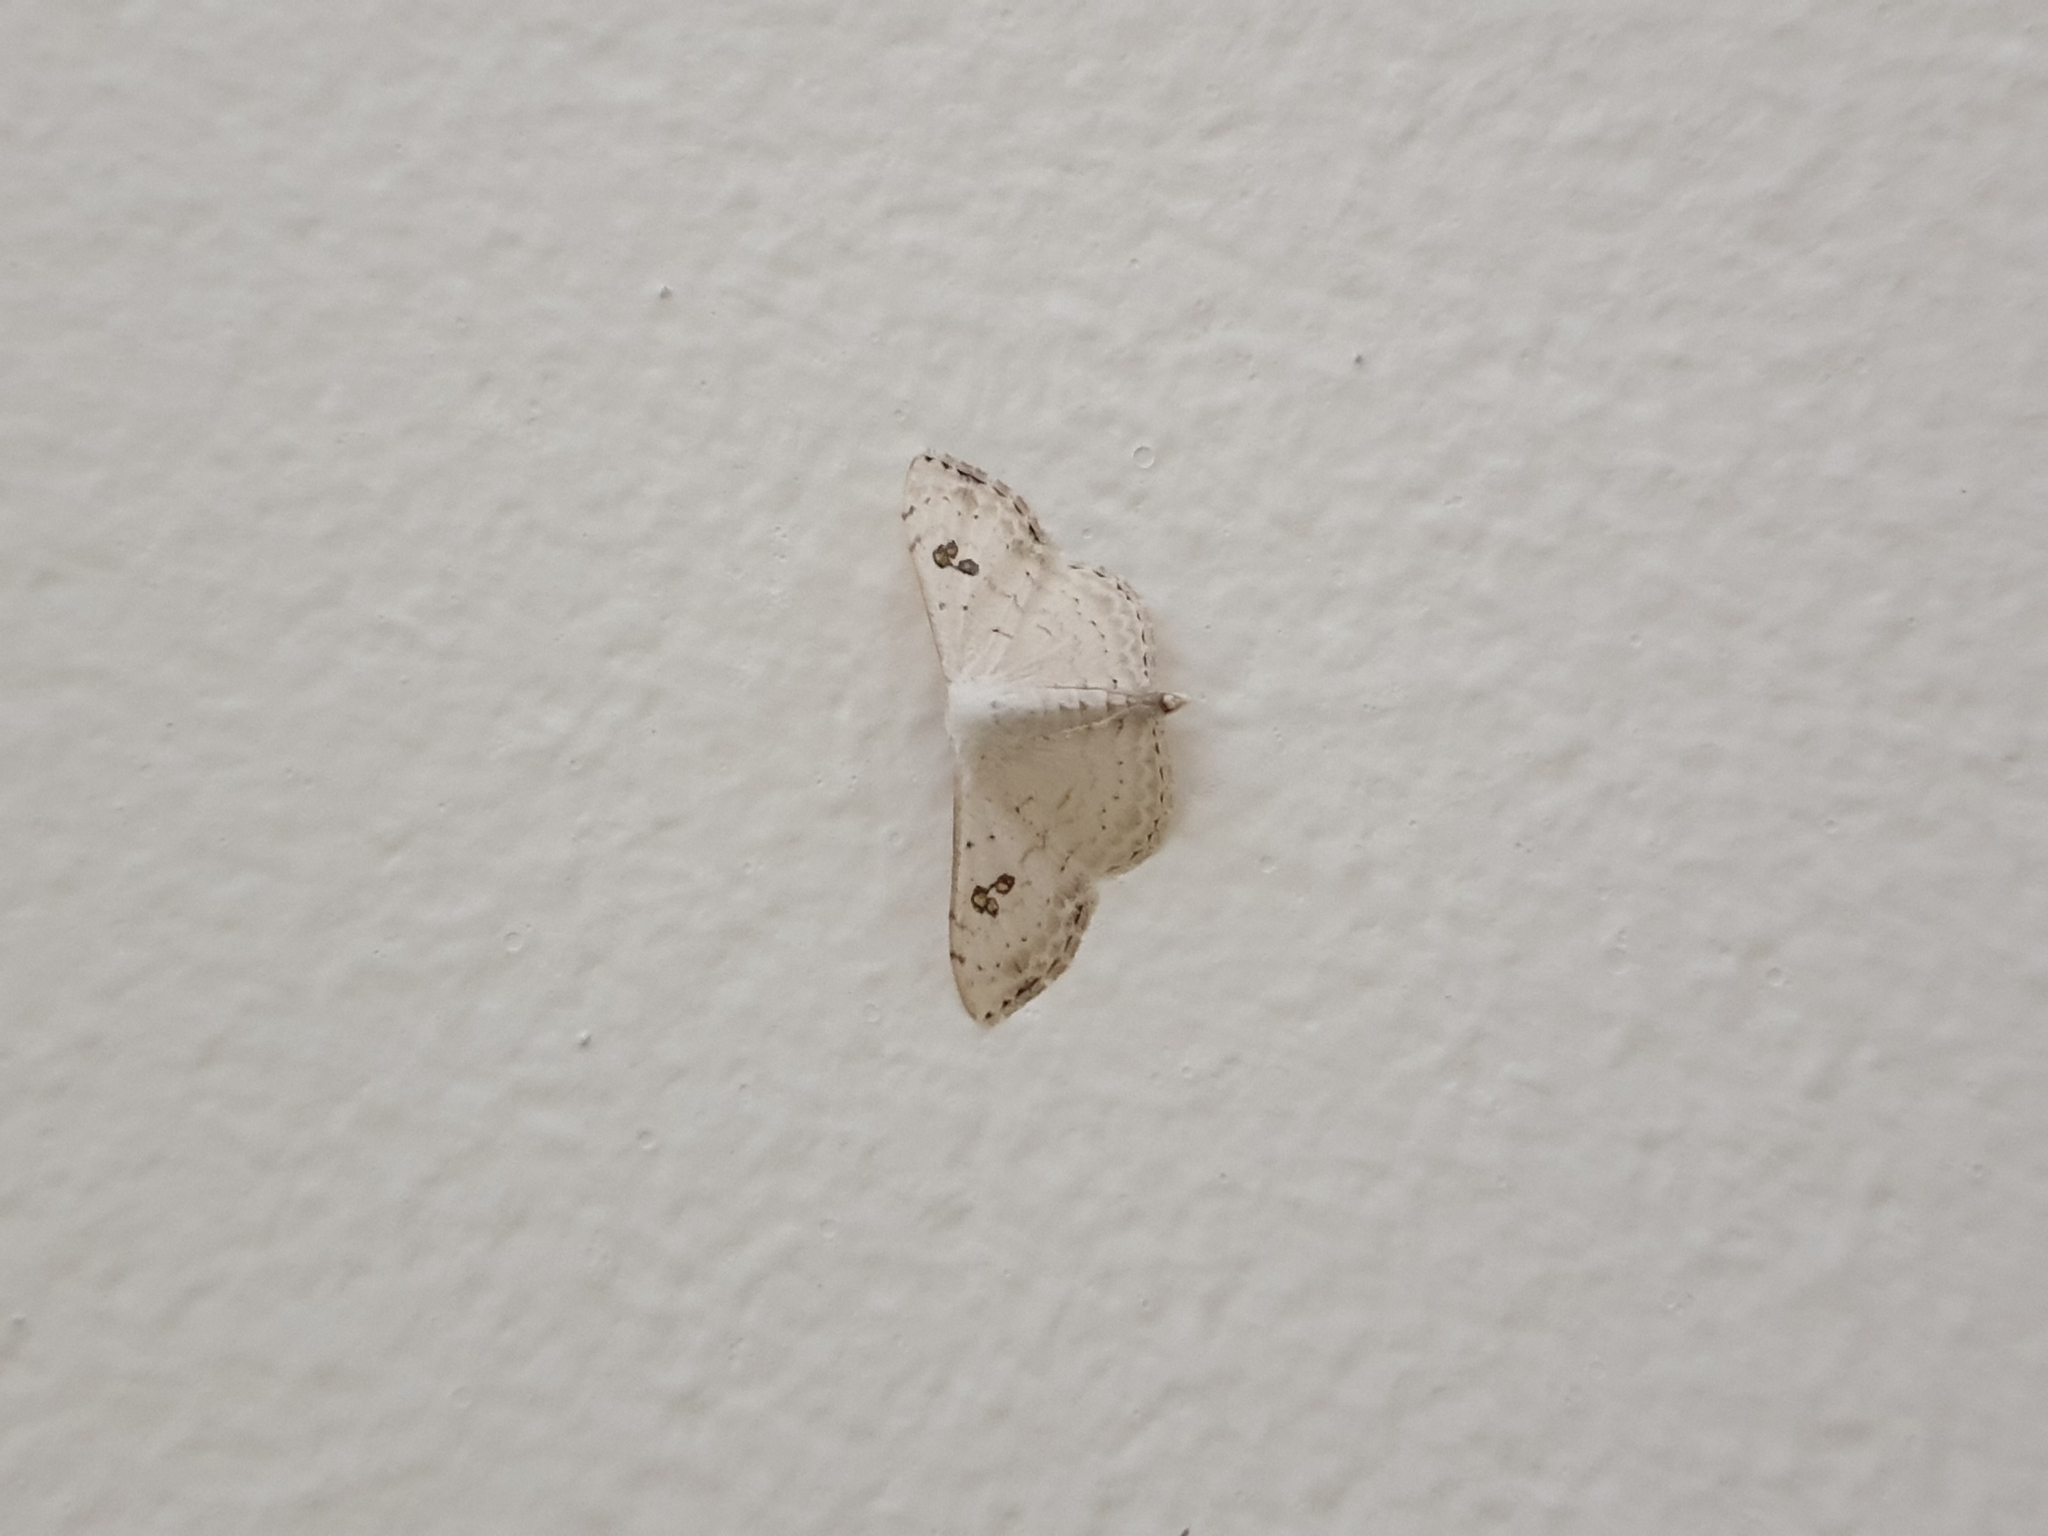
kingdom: Animalia
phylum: Arthropoda
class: Insecta
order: Lepidoptera
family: Geometridae
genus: Somatina
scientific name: Somatina omicraria
